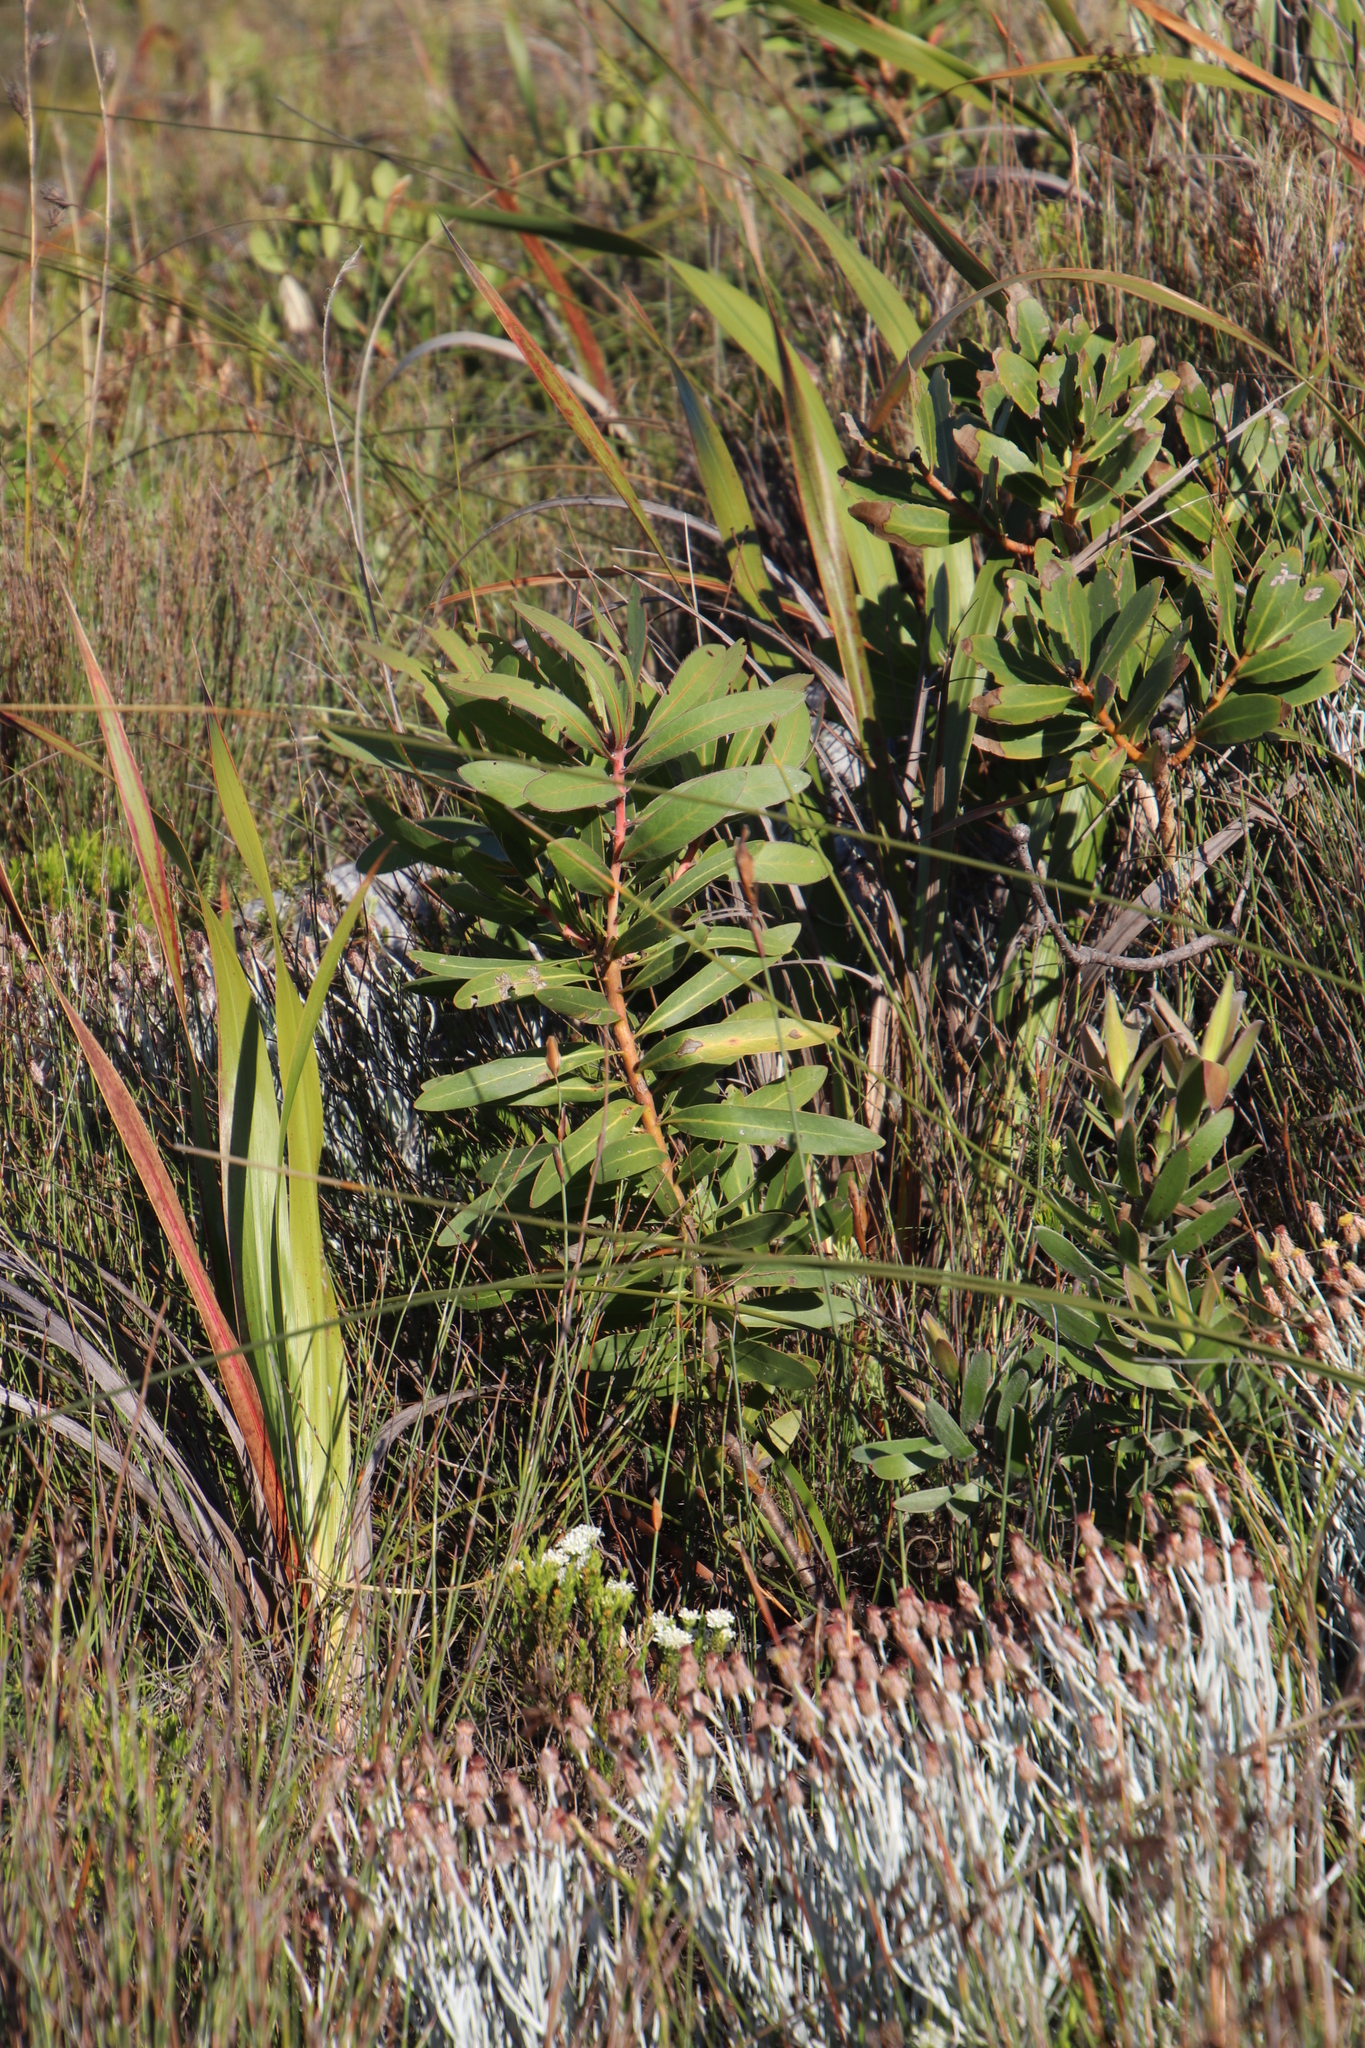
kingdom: Plantae
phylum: Tracheophyta
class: Magnoliopsida
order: Proteales
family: Proteaceae
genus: Protea
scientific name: Protea lepidocarpodendron
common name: Black-bearded protea
